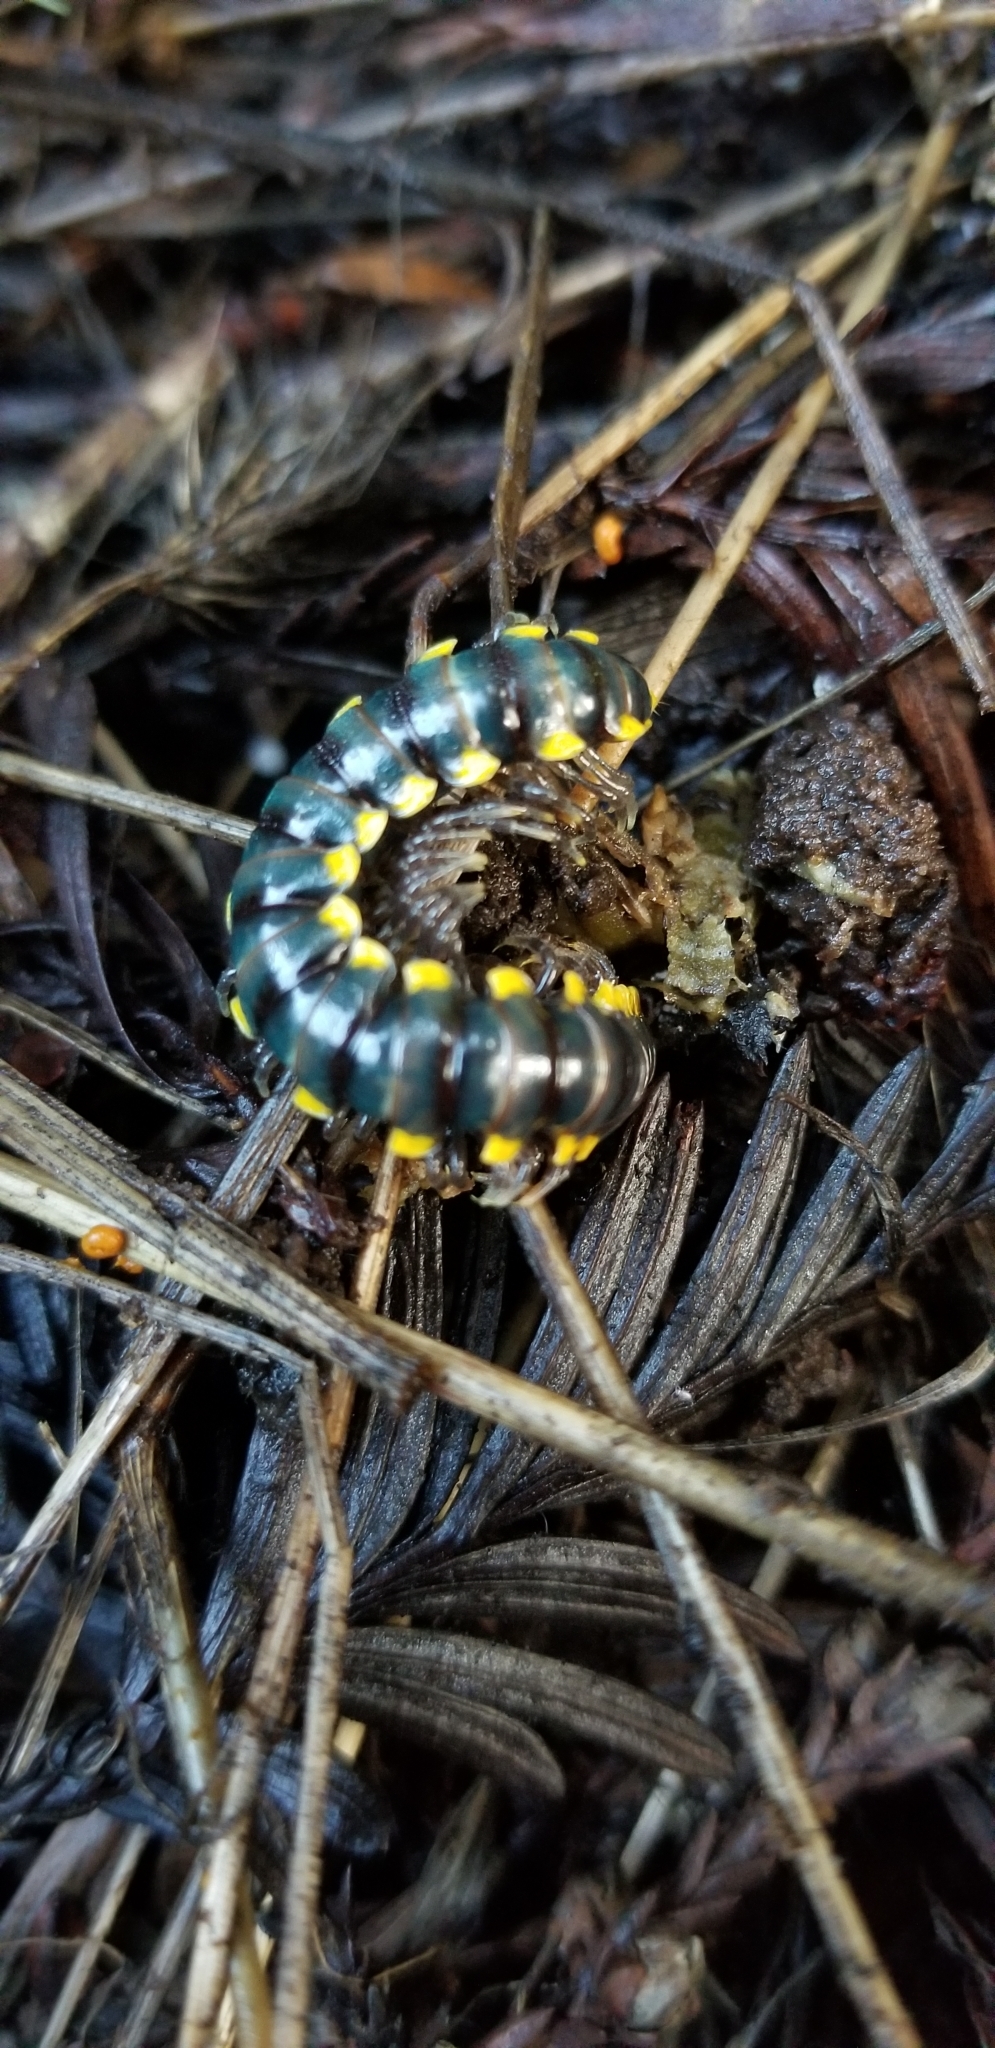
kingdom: Animalia
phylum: Arthropoda
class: Diplopoda
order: Polydesmida
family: Xystodesmidae
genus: Harpaphe
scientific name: Harpaphe haydeniana
